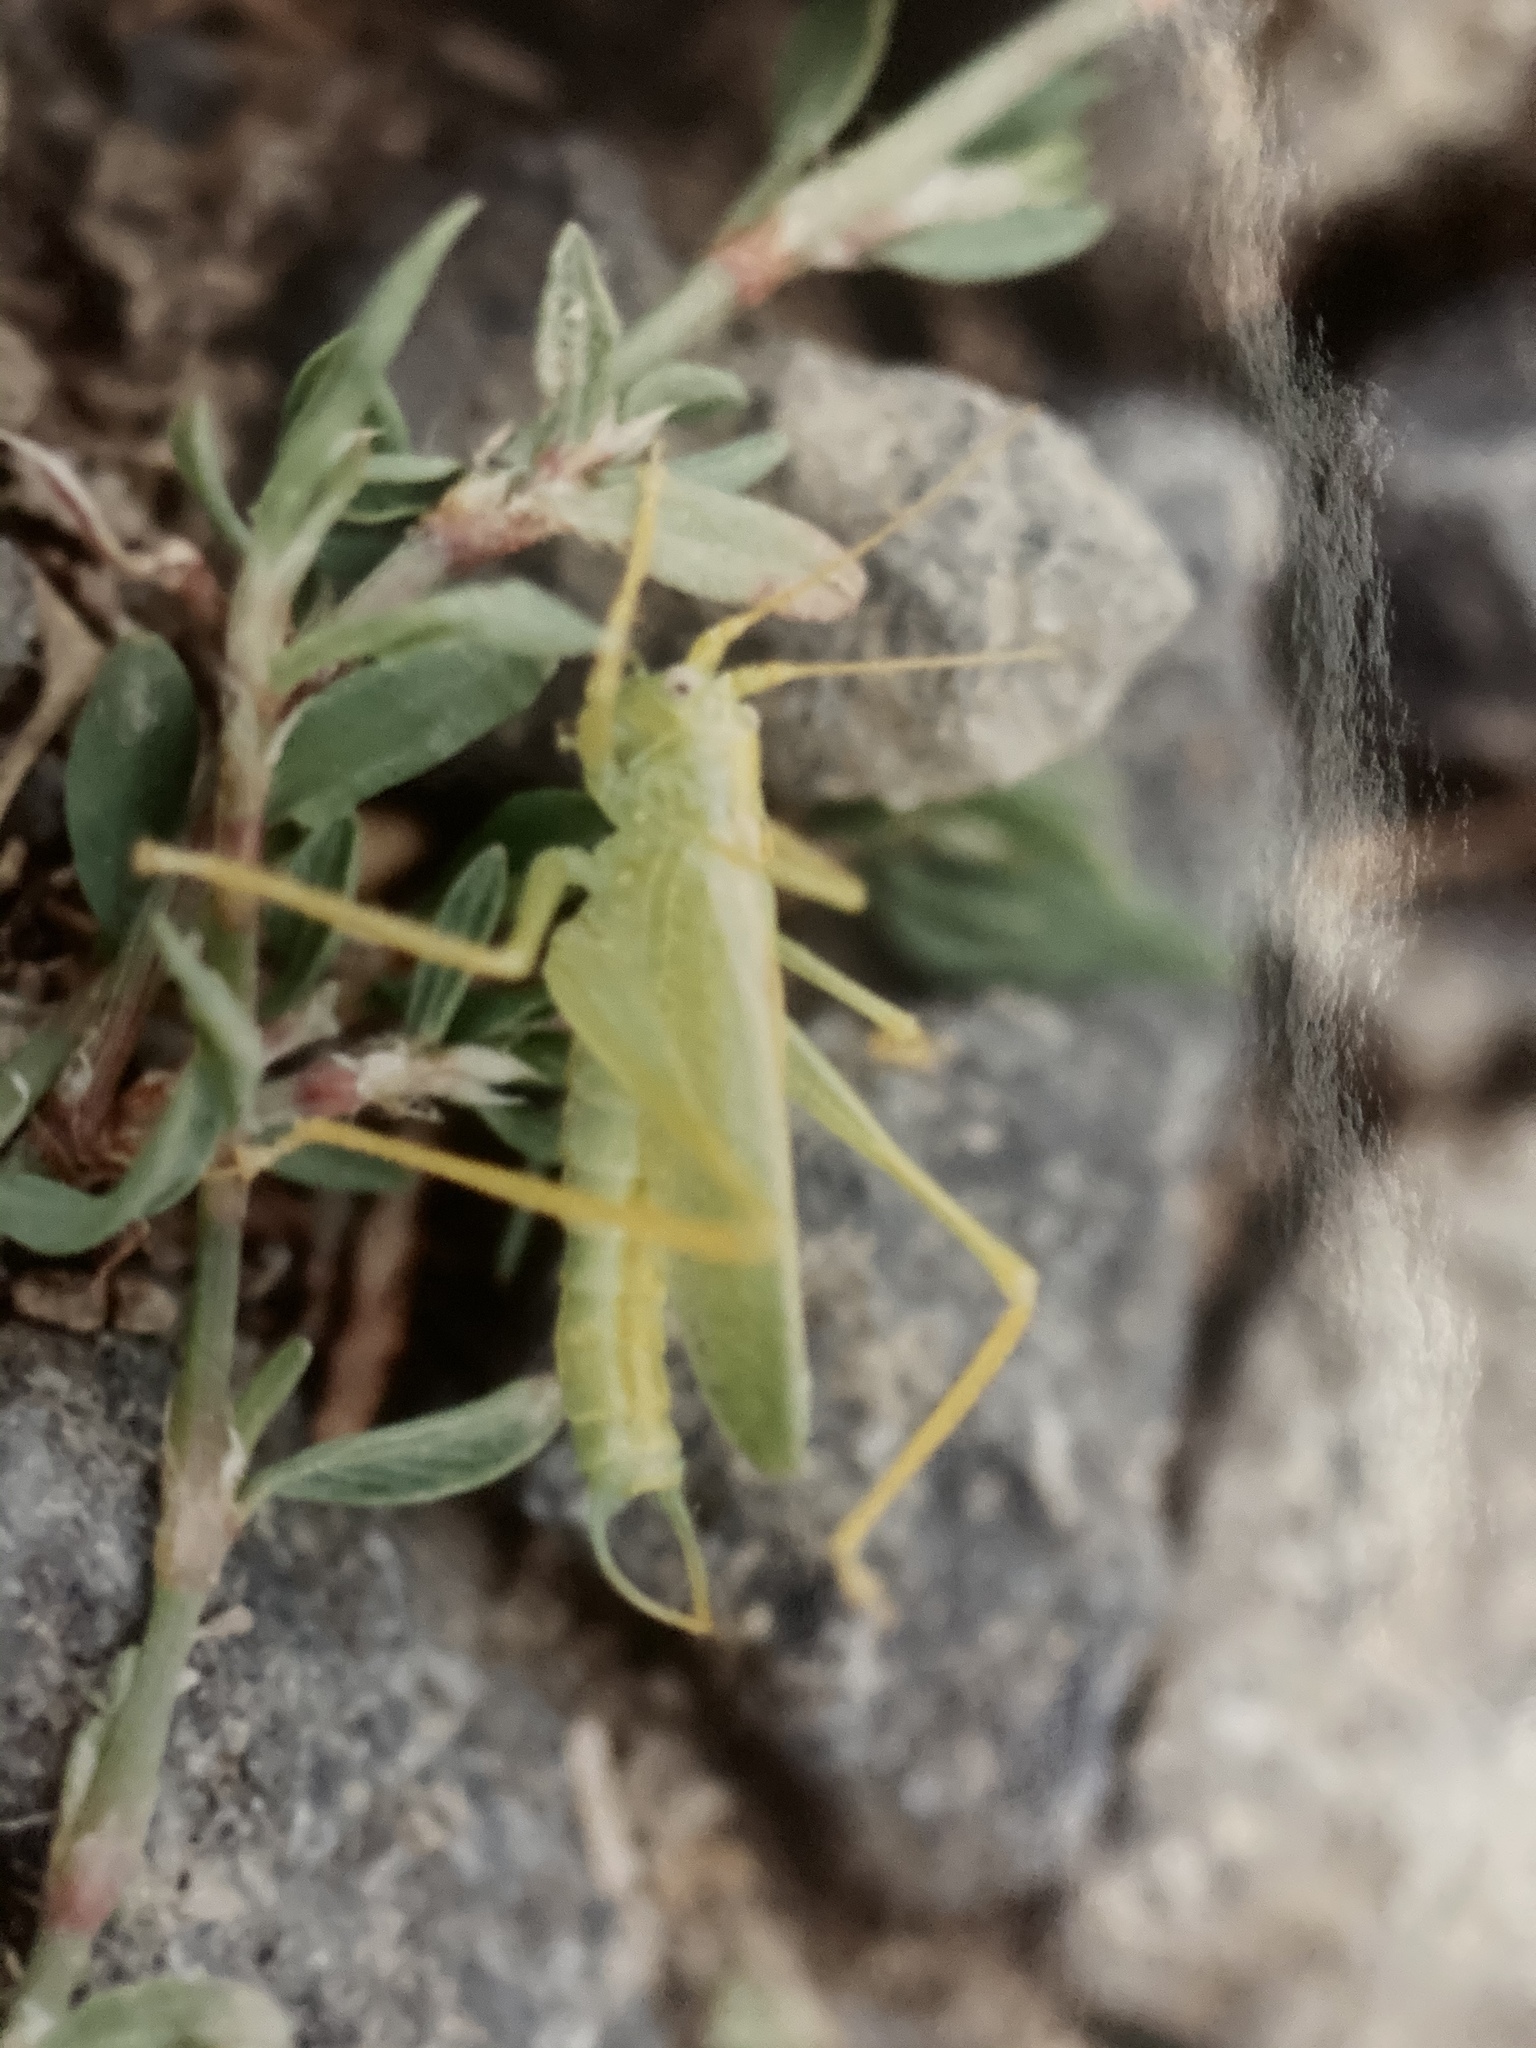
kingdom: Animalia
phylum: Arthropoda
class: Insecta
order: Orthoptera
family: Tettigoniidae
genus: Meconema
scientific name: Meconema thalassinum
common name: Oak bush-cricket
